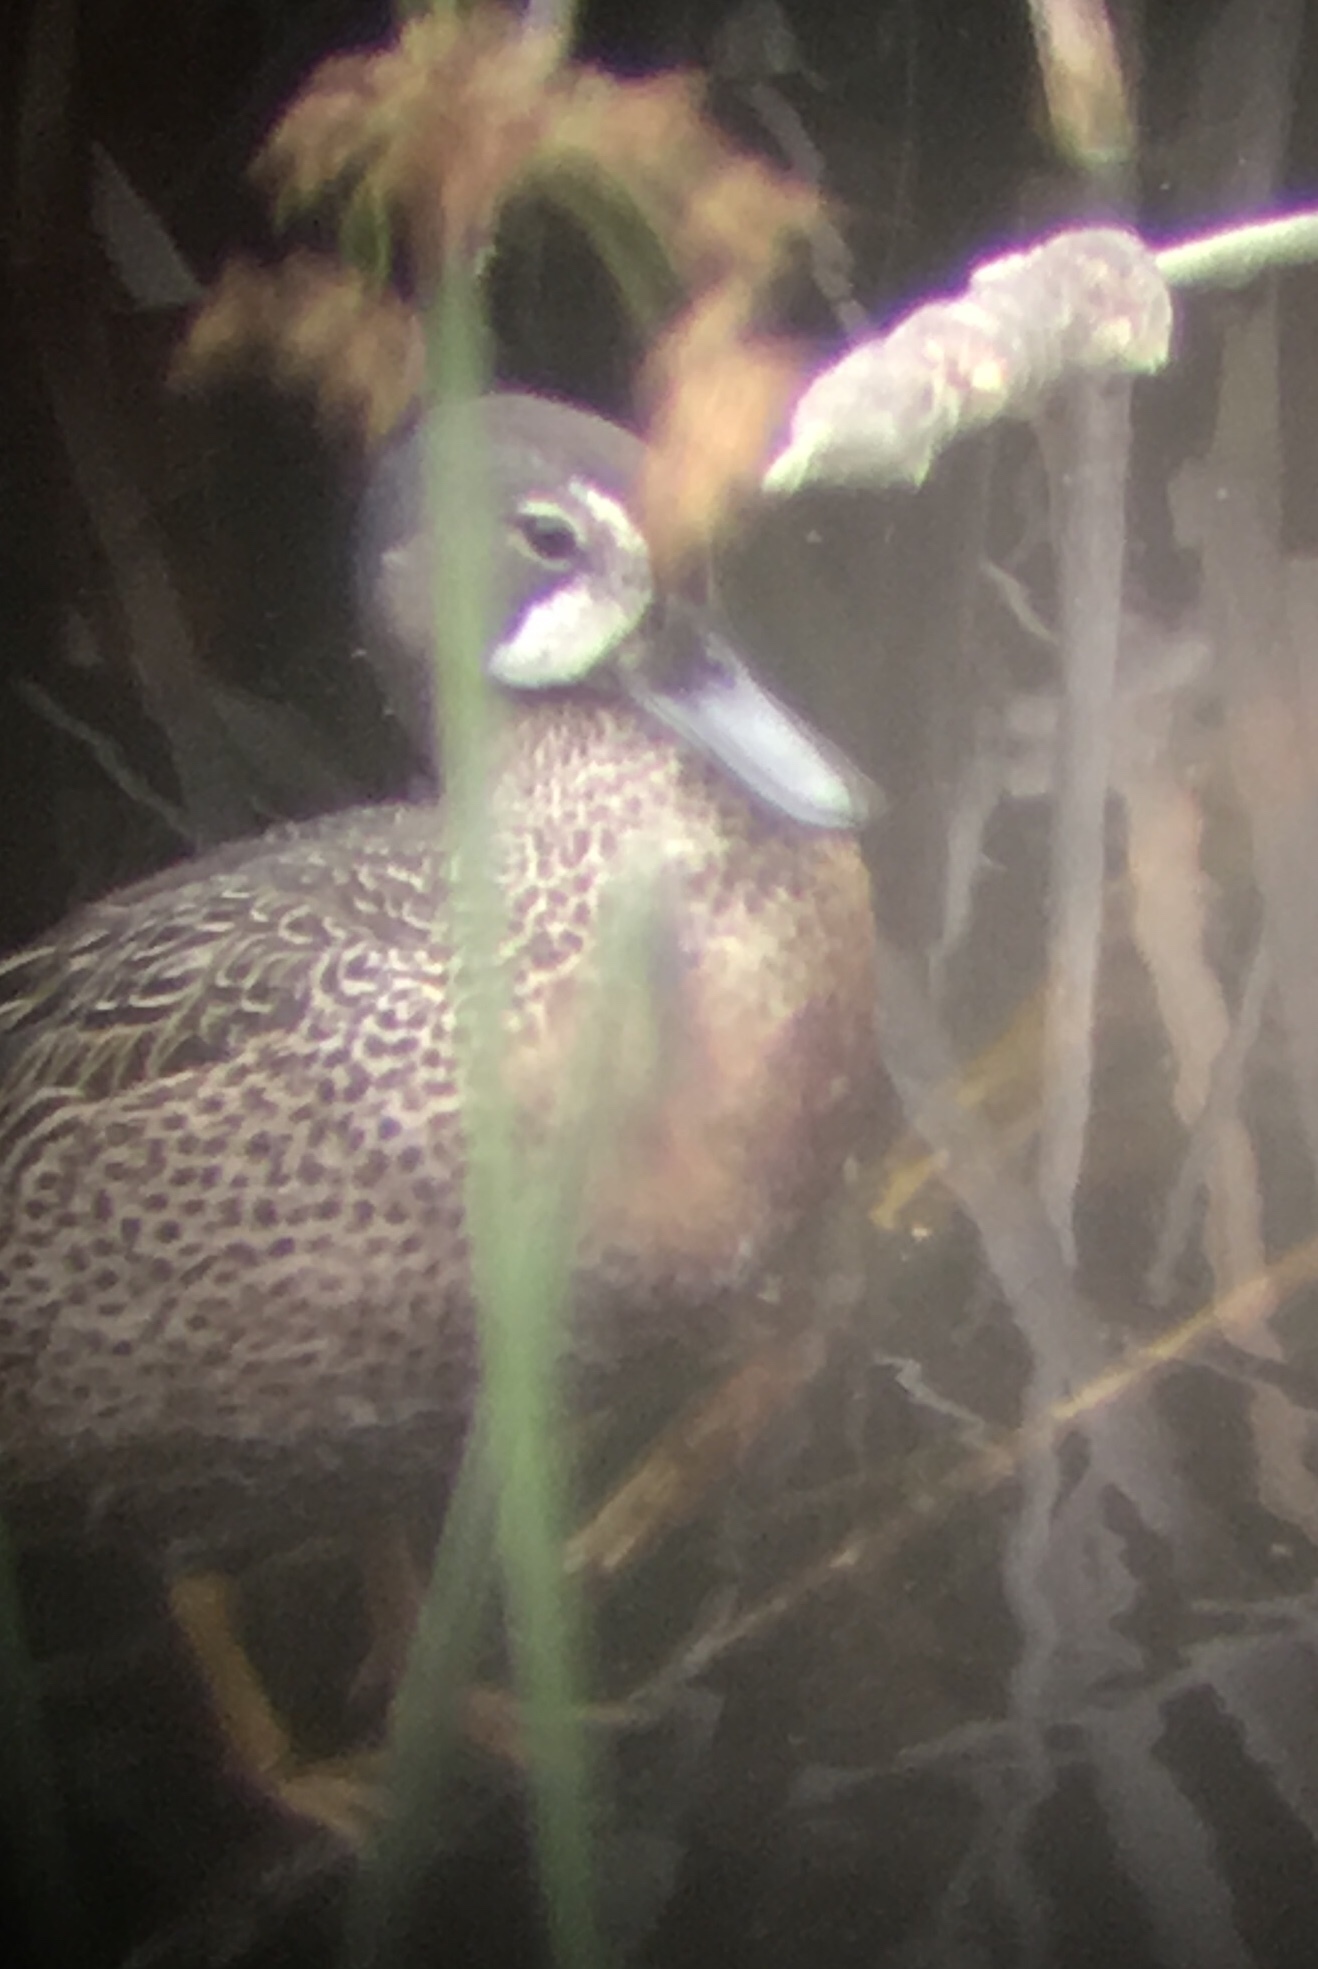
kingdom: Animalia
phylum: Chordata
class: Aves
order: Anseriformes
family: Anatidae
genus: Spatula
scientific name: Spatula discors
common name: Blue-winged teal
